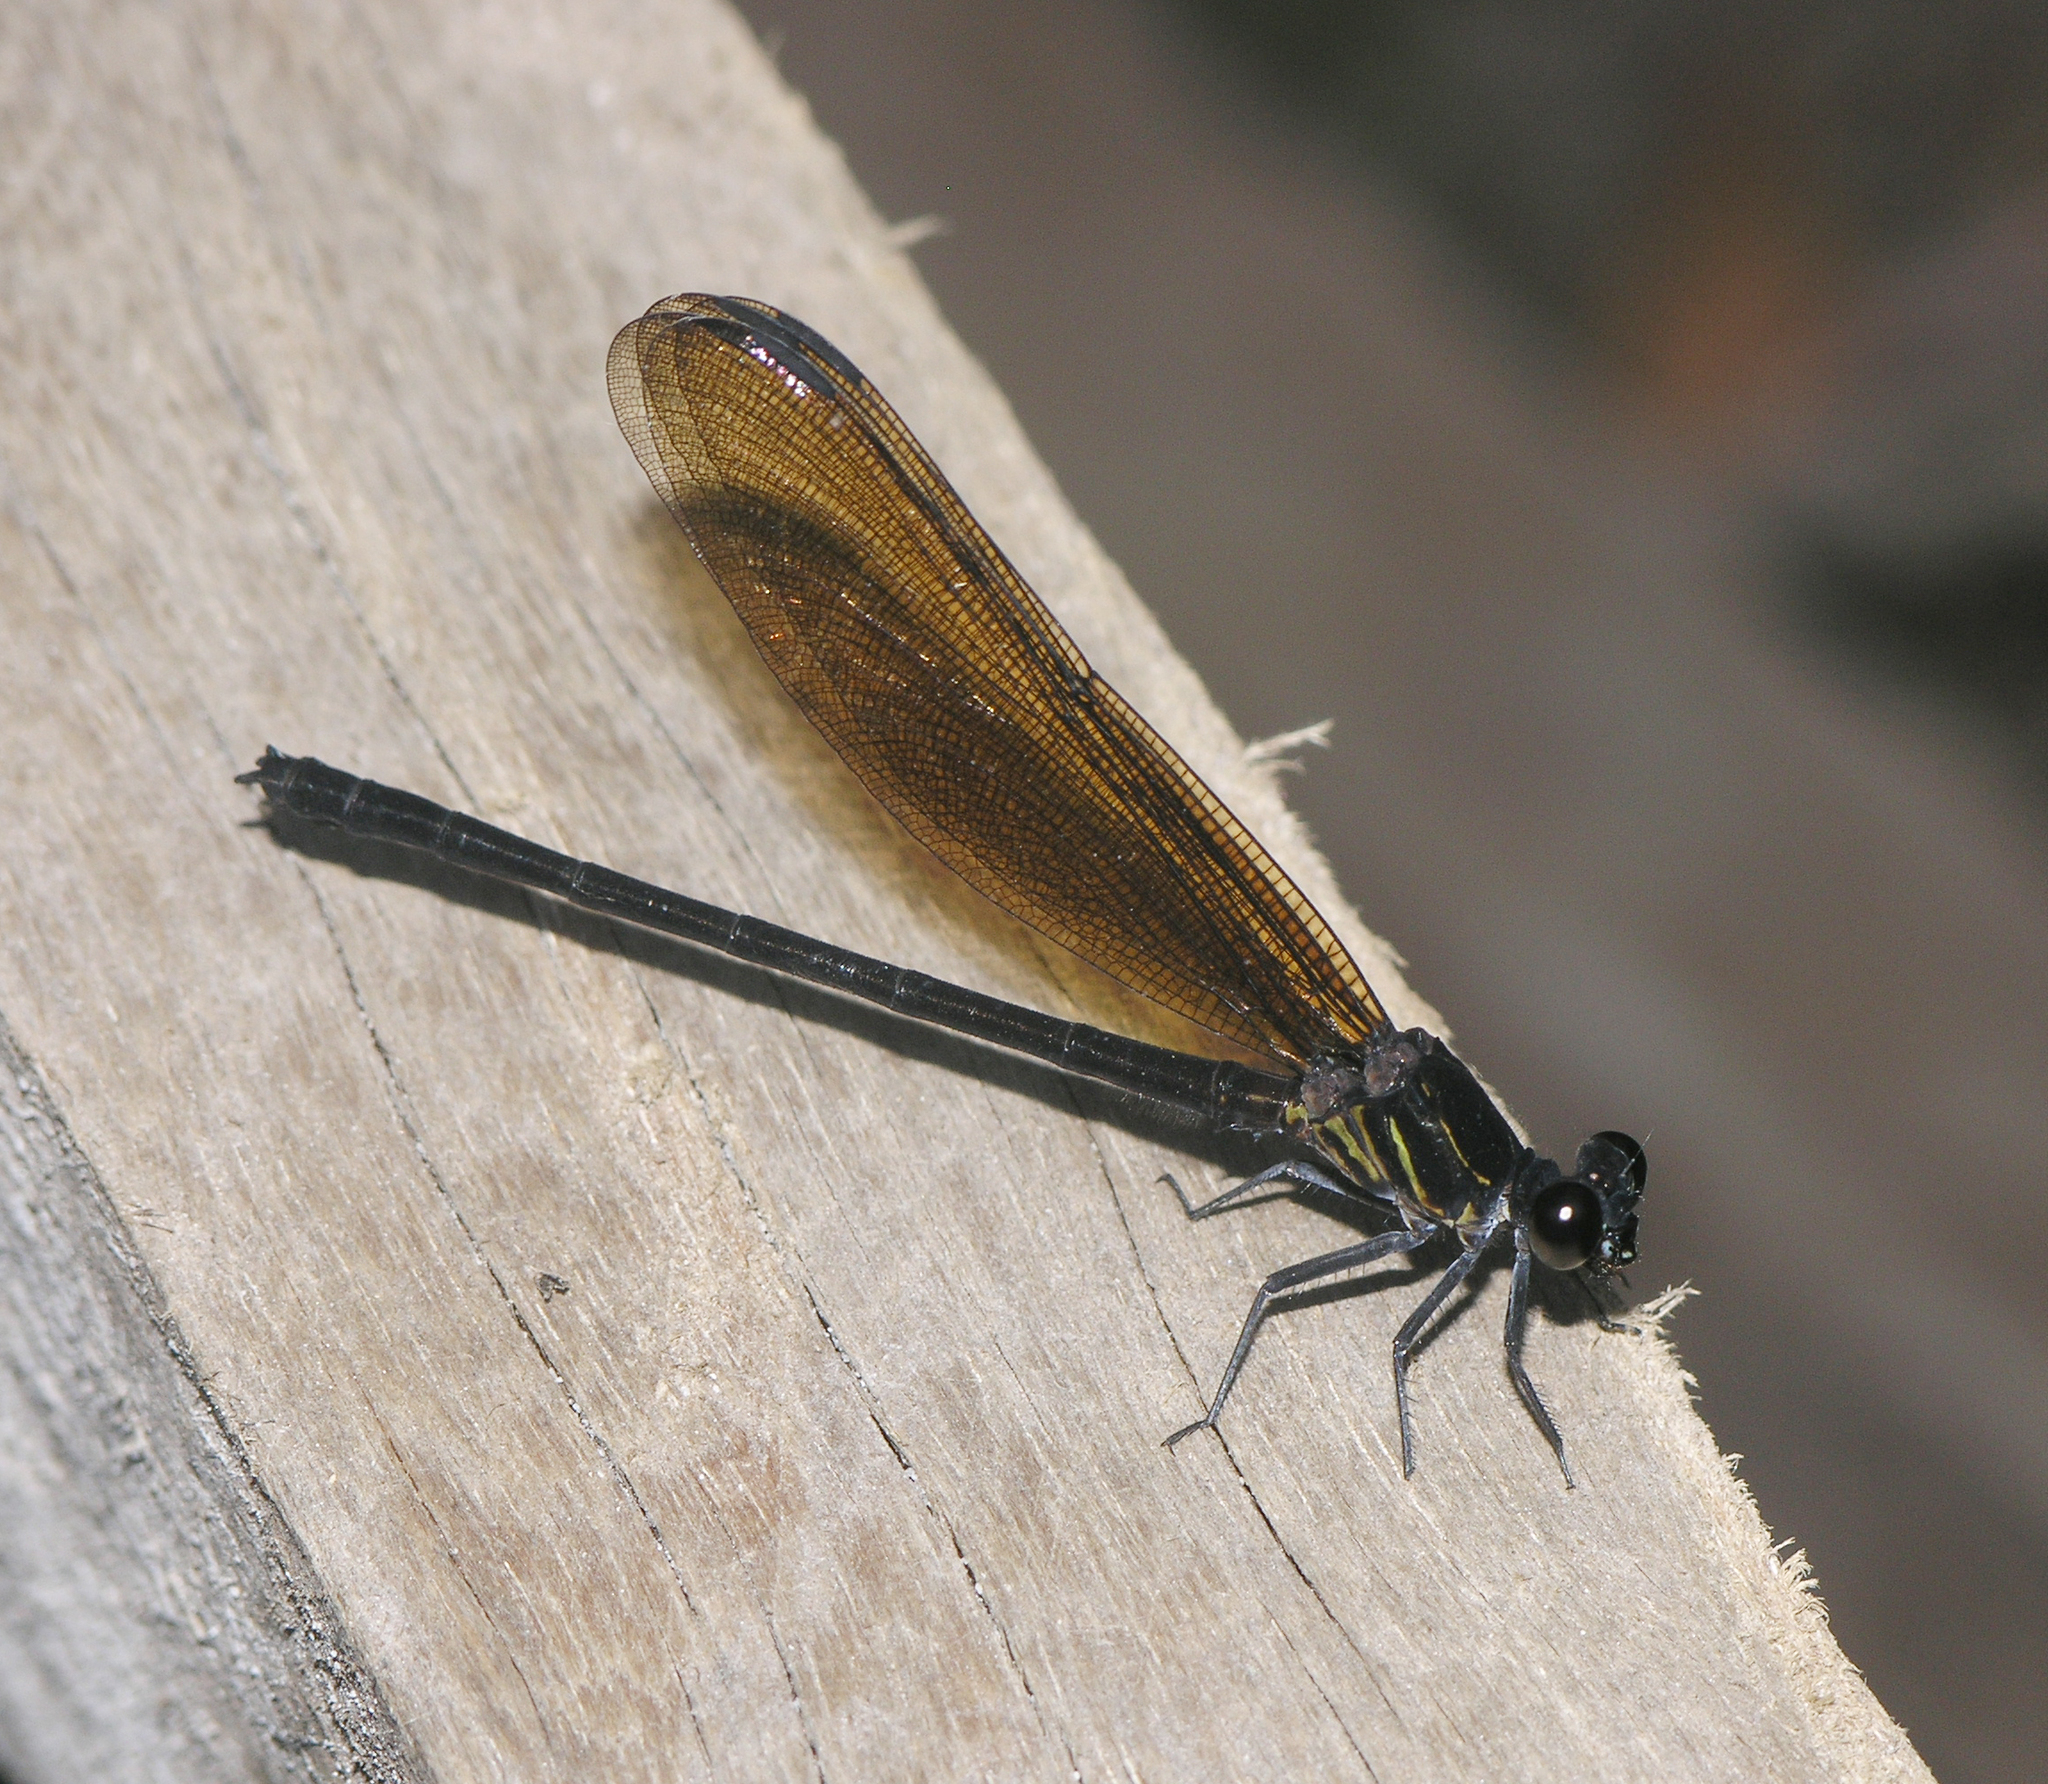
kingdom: Animalia
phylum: Arthropoda
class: Insecta
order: Odonata
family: Euphaeidae
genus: Euphaea
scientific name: Euphaea cyanopogon
